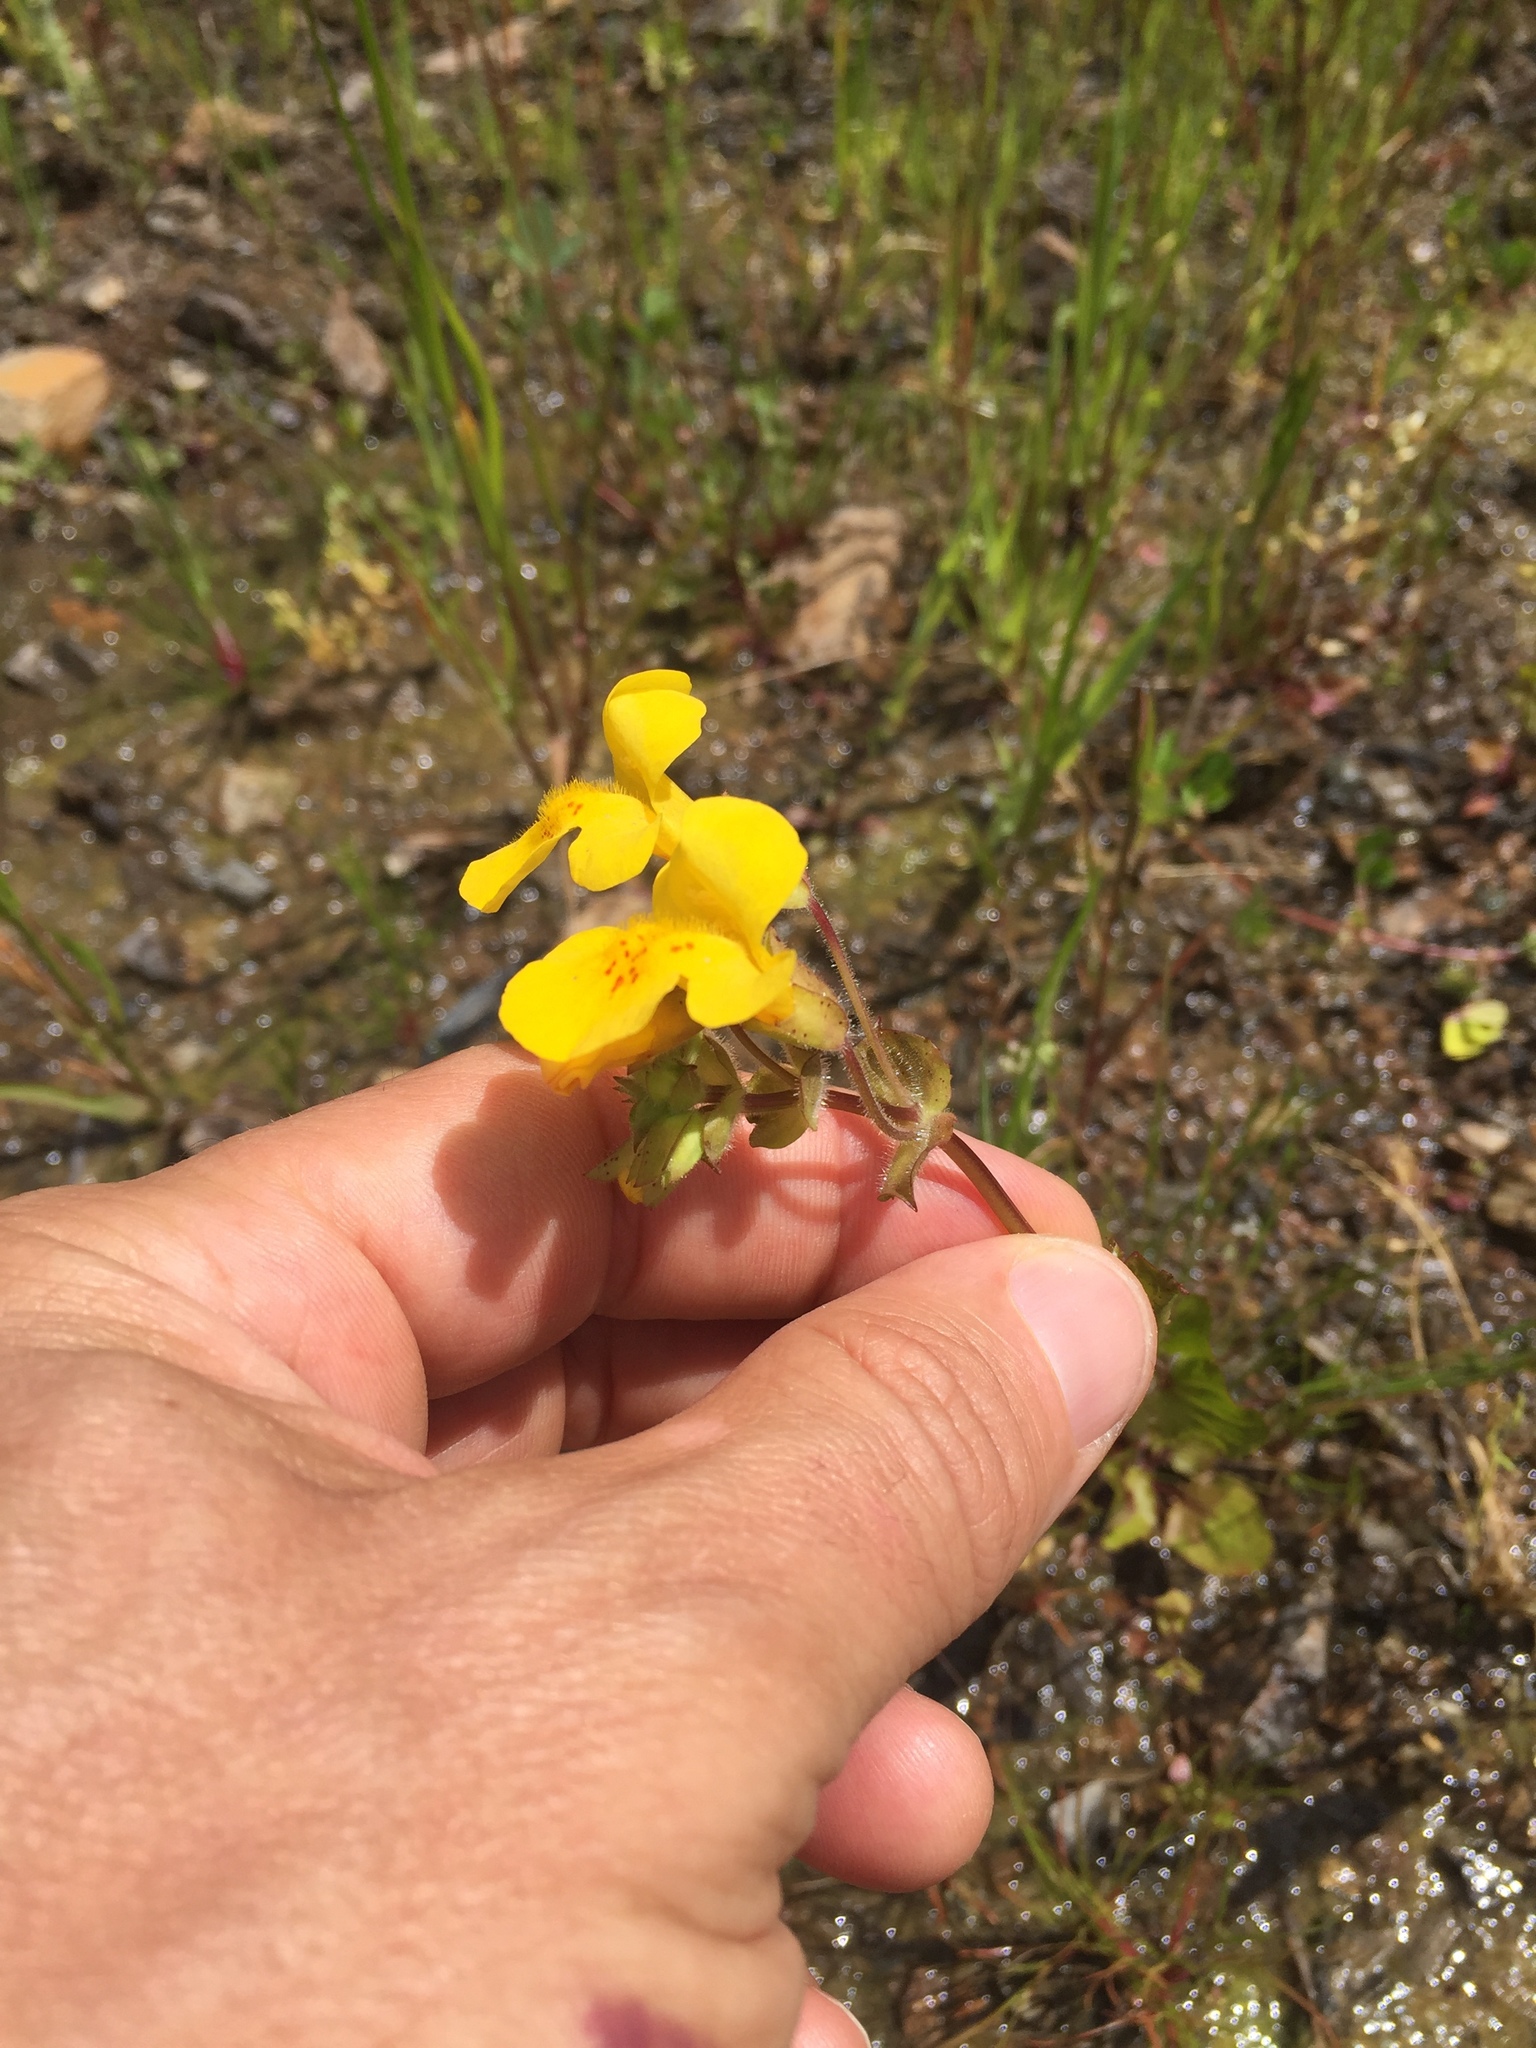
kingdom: Plantae
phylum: Tracheophyta
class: Magnoliopsida
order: Lamiales
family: Phrymaceae
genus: Erythranthe
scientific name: Erythranthe guttata
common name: Monkeyflower
